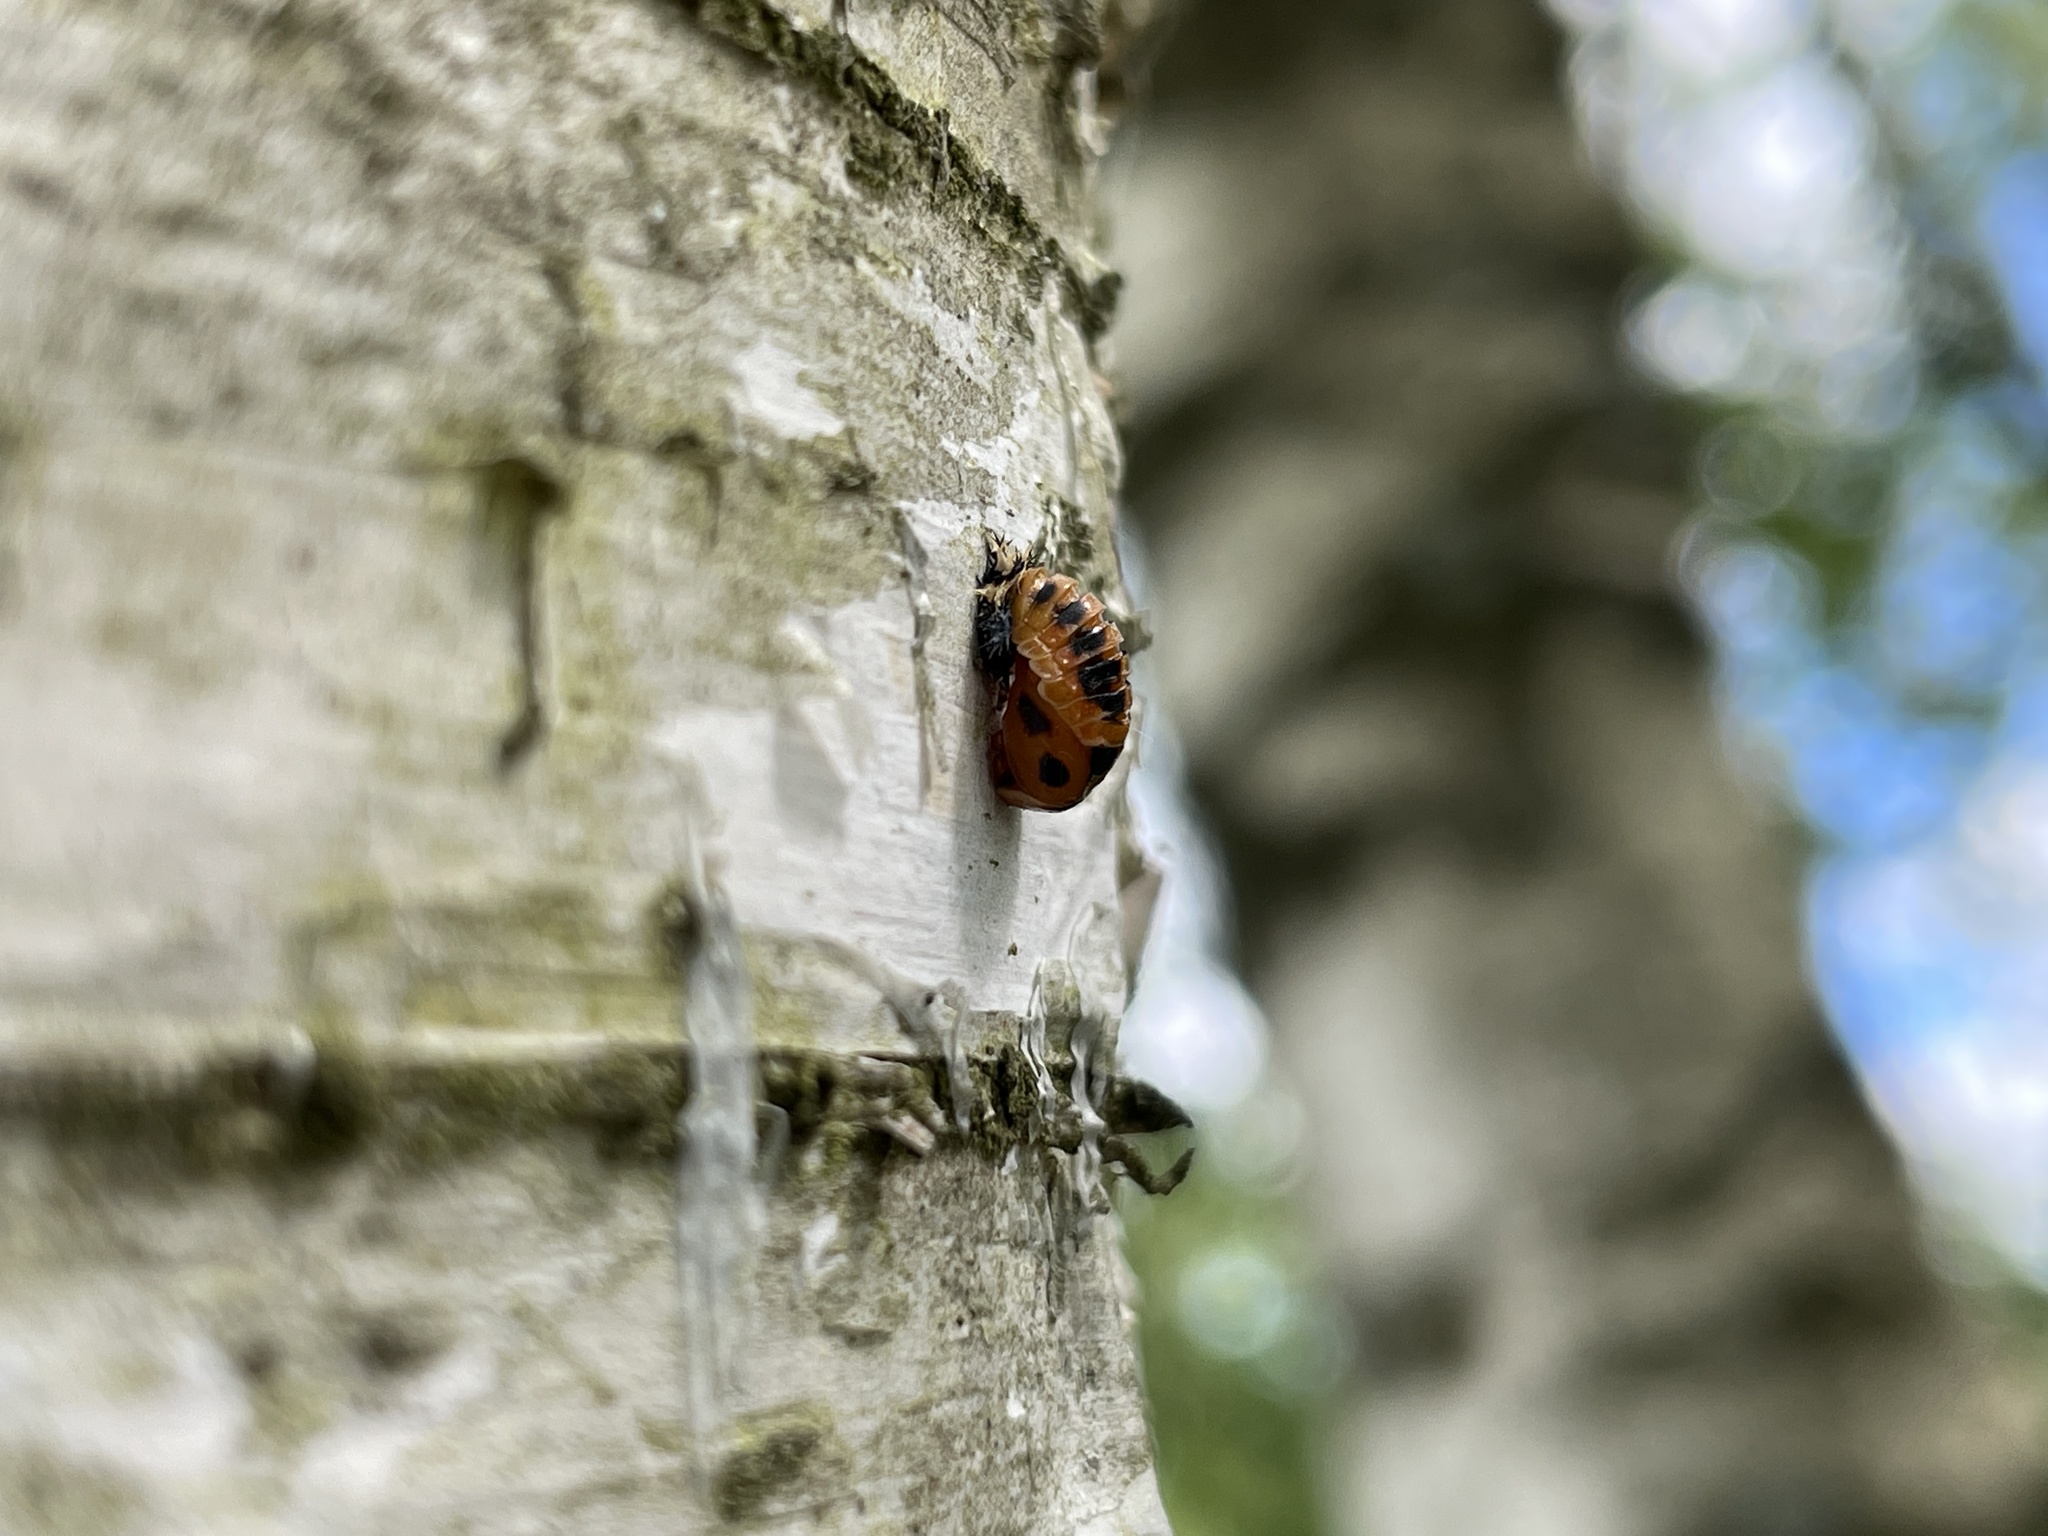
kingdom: Animalia
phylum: Arthropoda
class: Insecta
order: Coleoptera
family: Coccinellidae
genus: Harmonia
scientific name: Harmonia axyridis
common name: Harlequin ladybird
